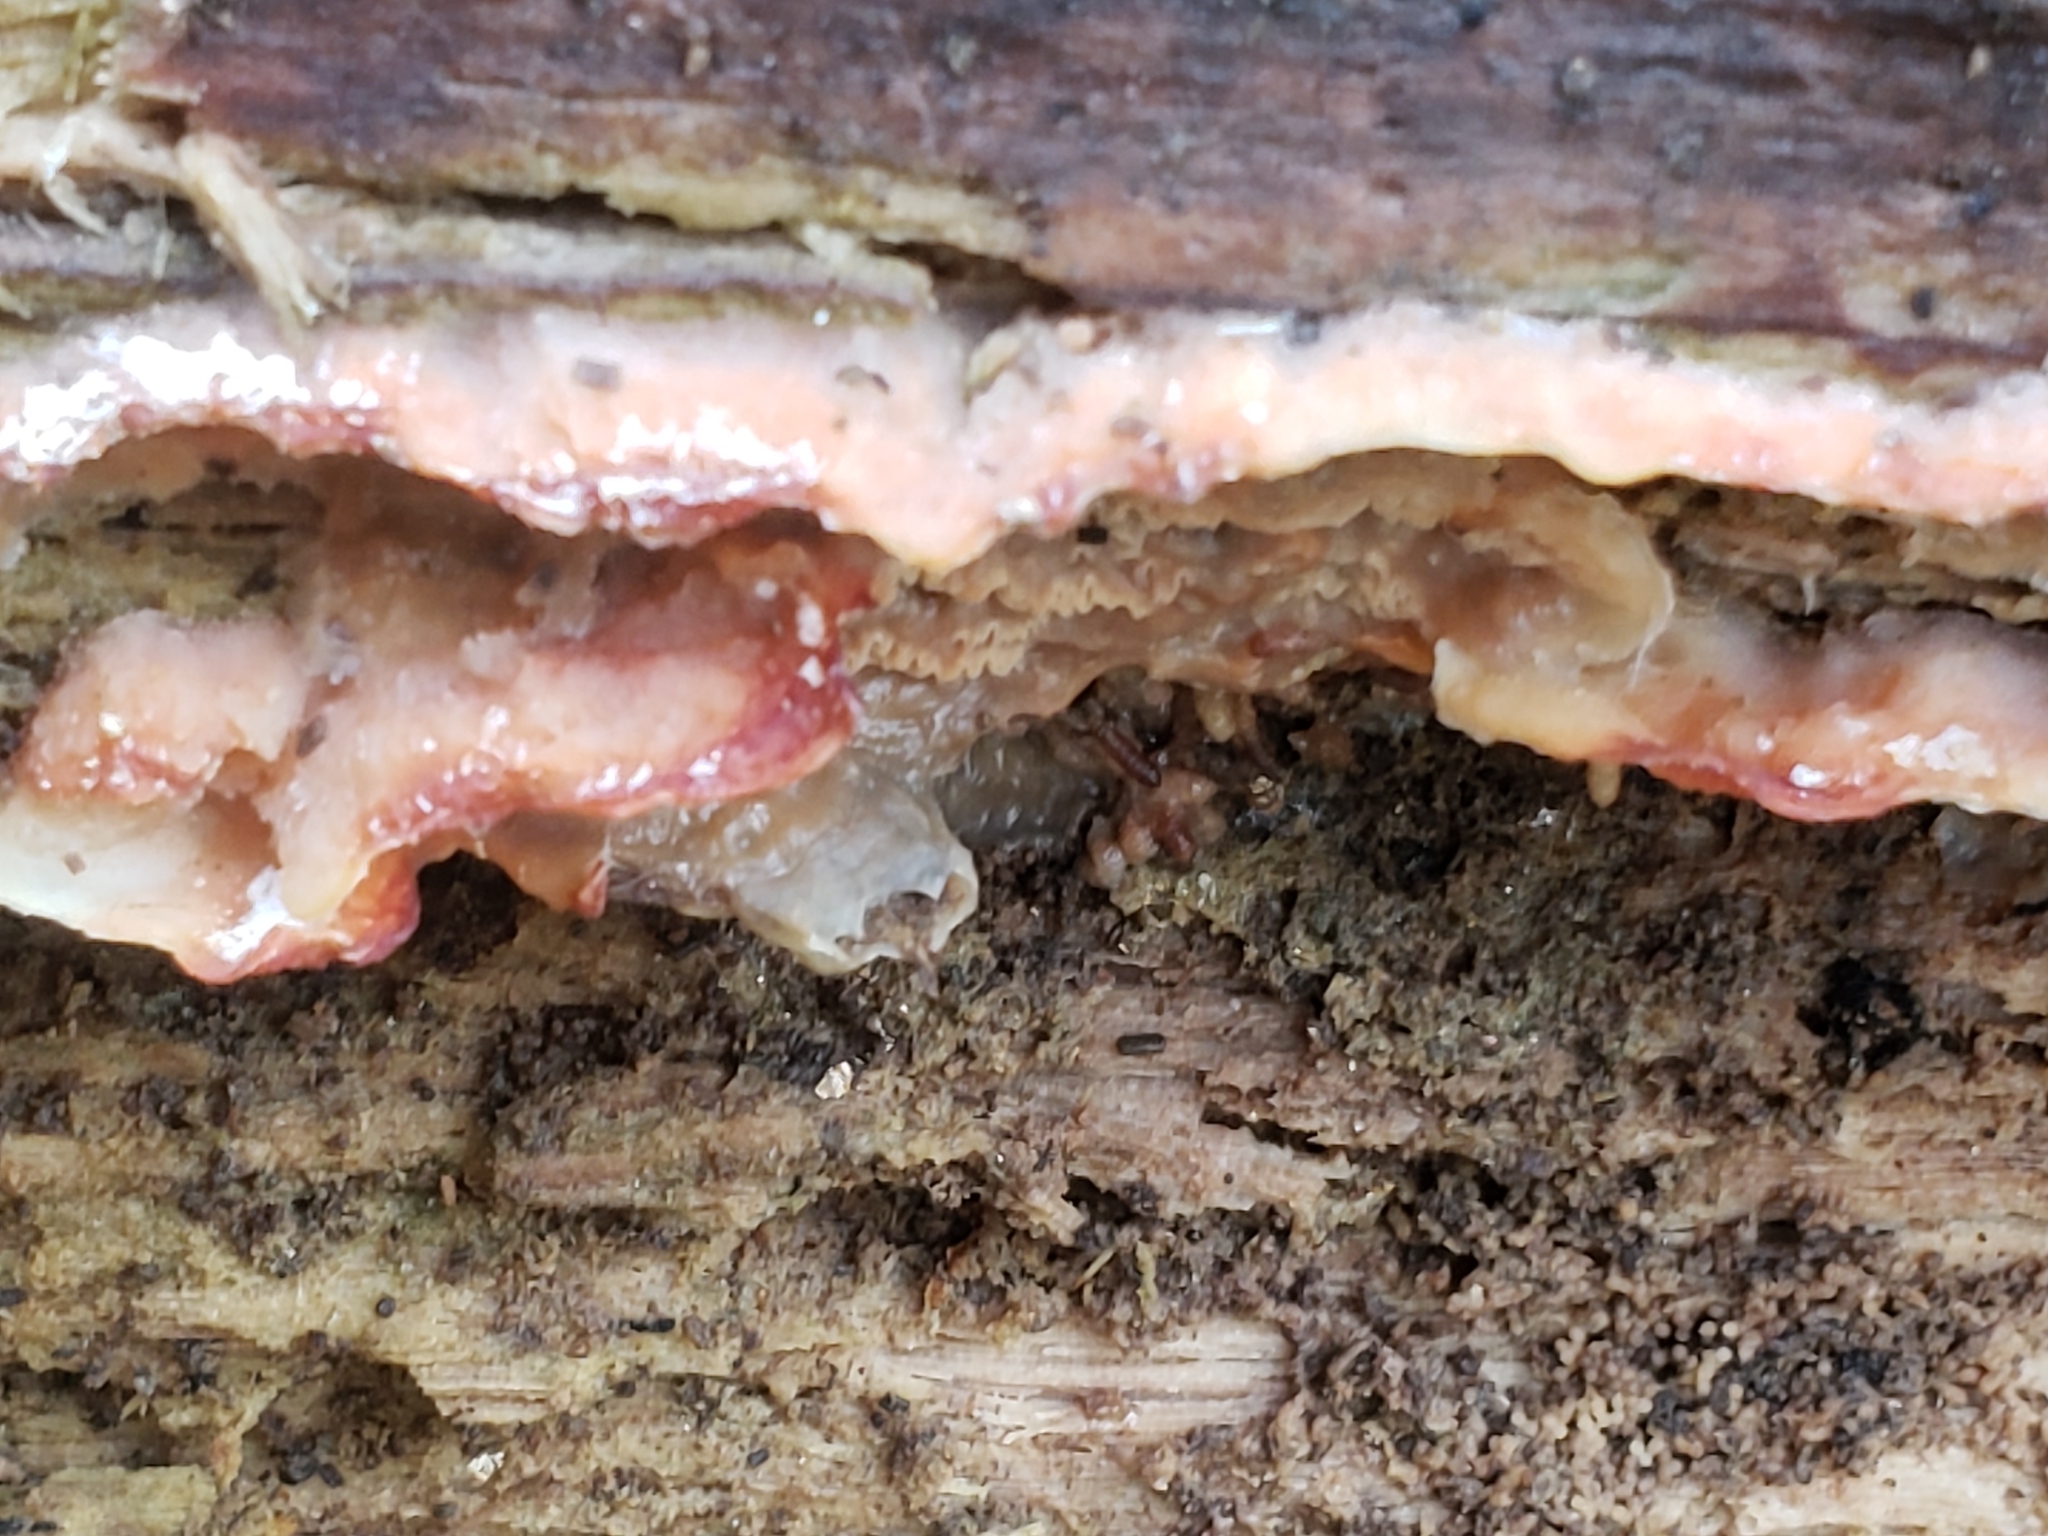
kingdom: Fungi
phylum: Basidiomycota
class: Agaricomycetes
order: Polyporales
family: Meruliaceae
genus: Phlebia
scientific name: Phlebia tremellosa
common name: Jelly rot
